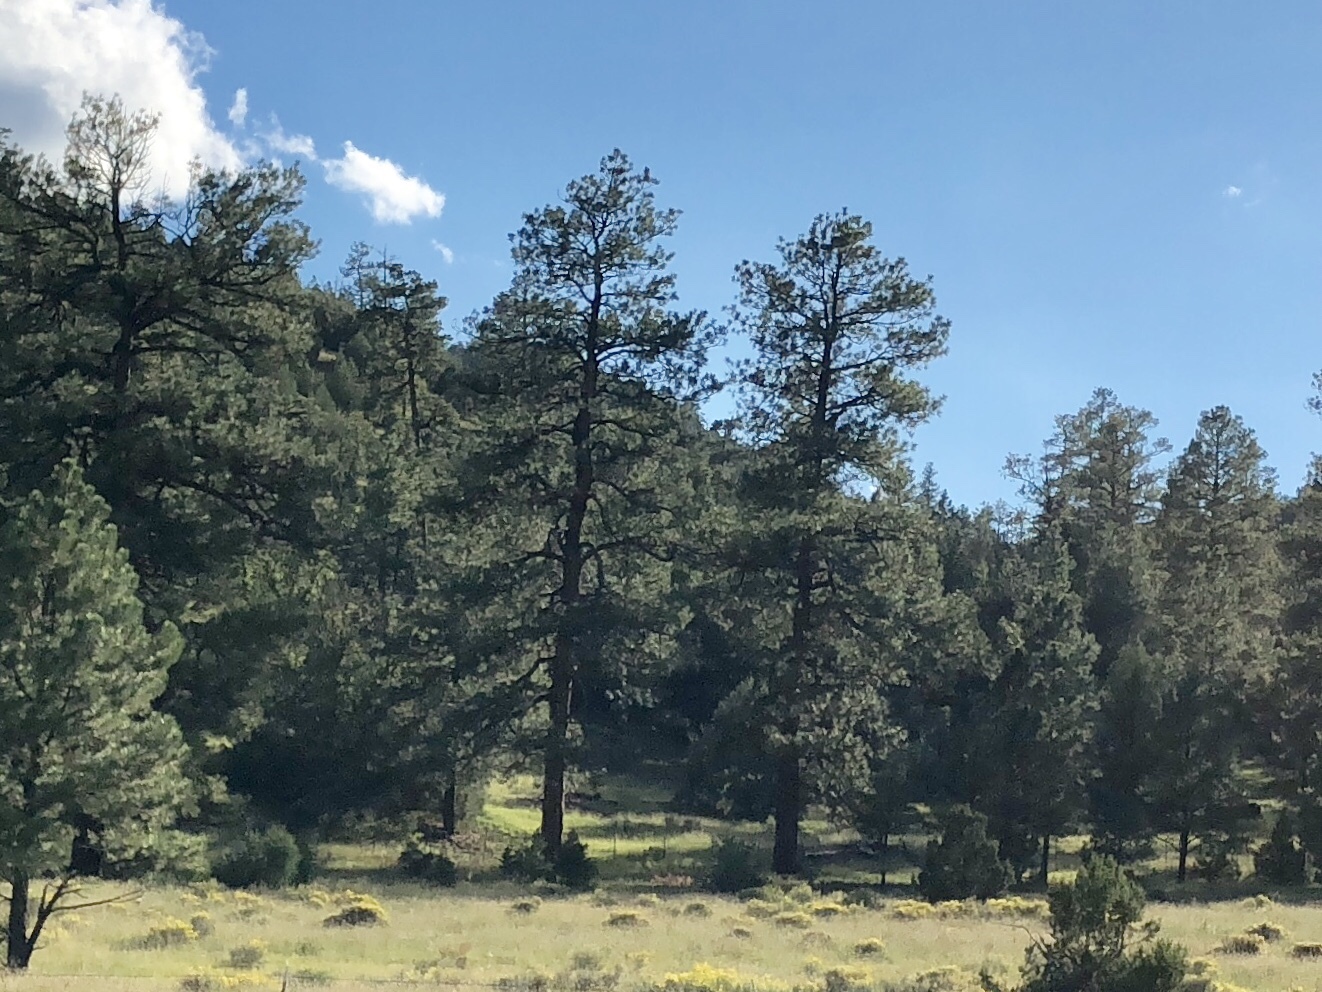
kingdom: Plantae
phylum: Tracheophyta
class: Pinopsida
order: Pinales
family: Pinaceae
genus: Pinus
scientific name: Pinus ponderosa
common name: Western yellow-pine
